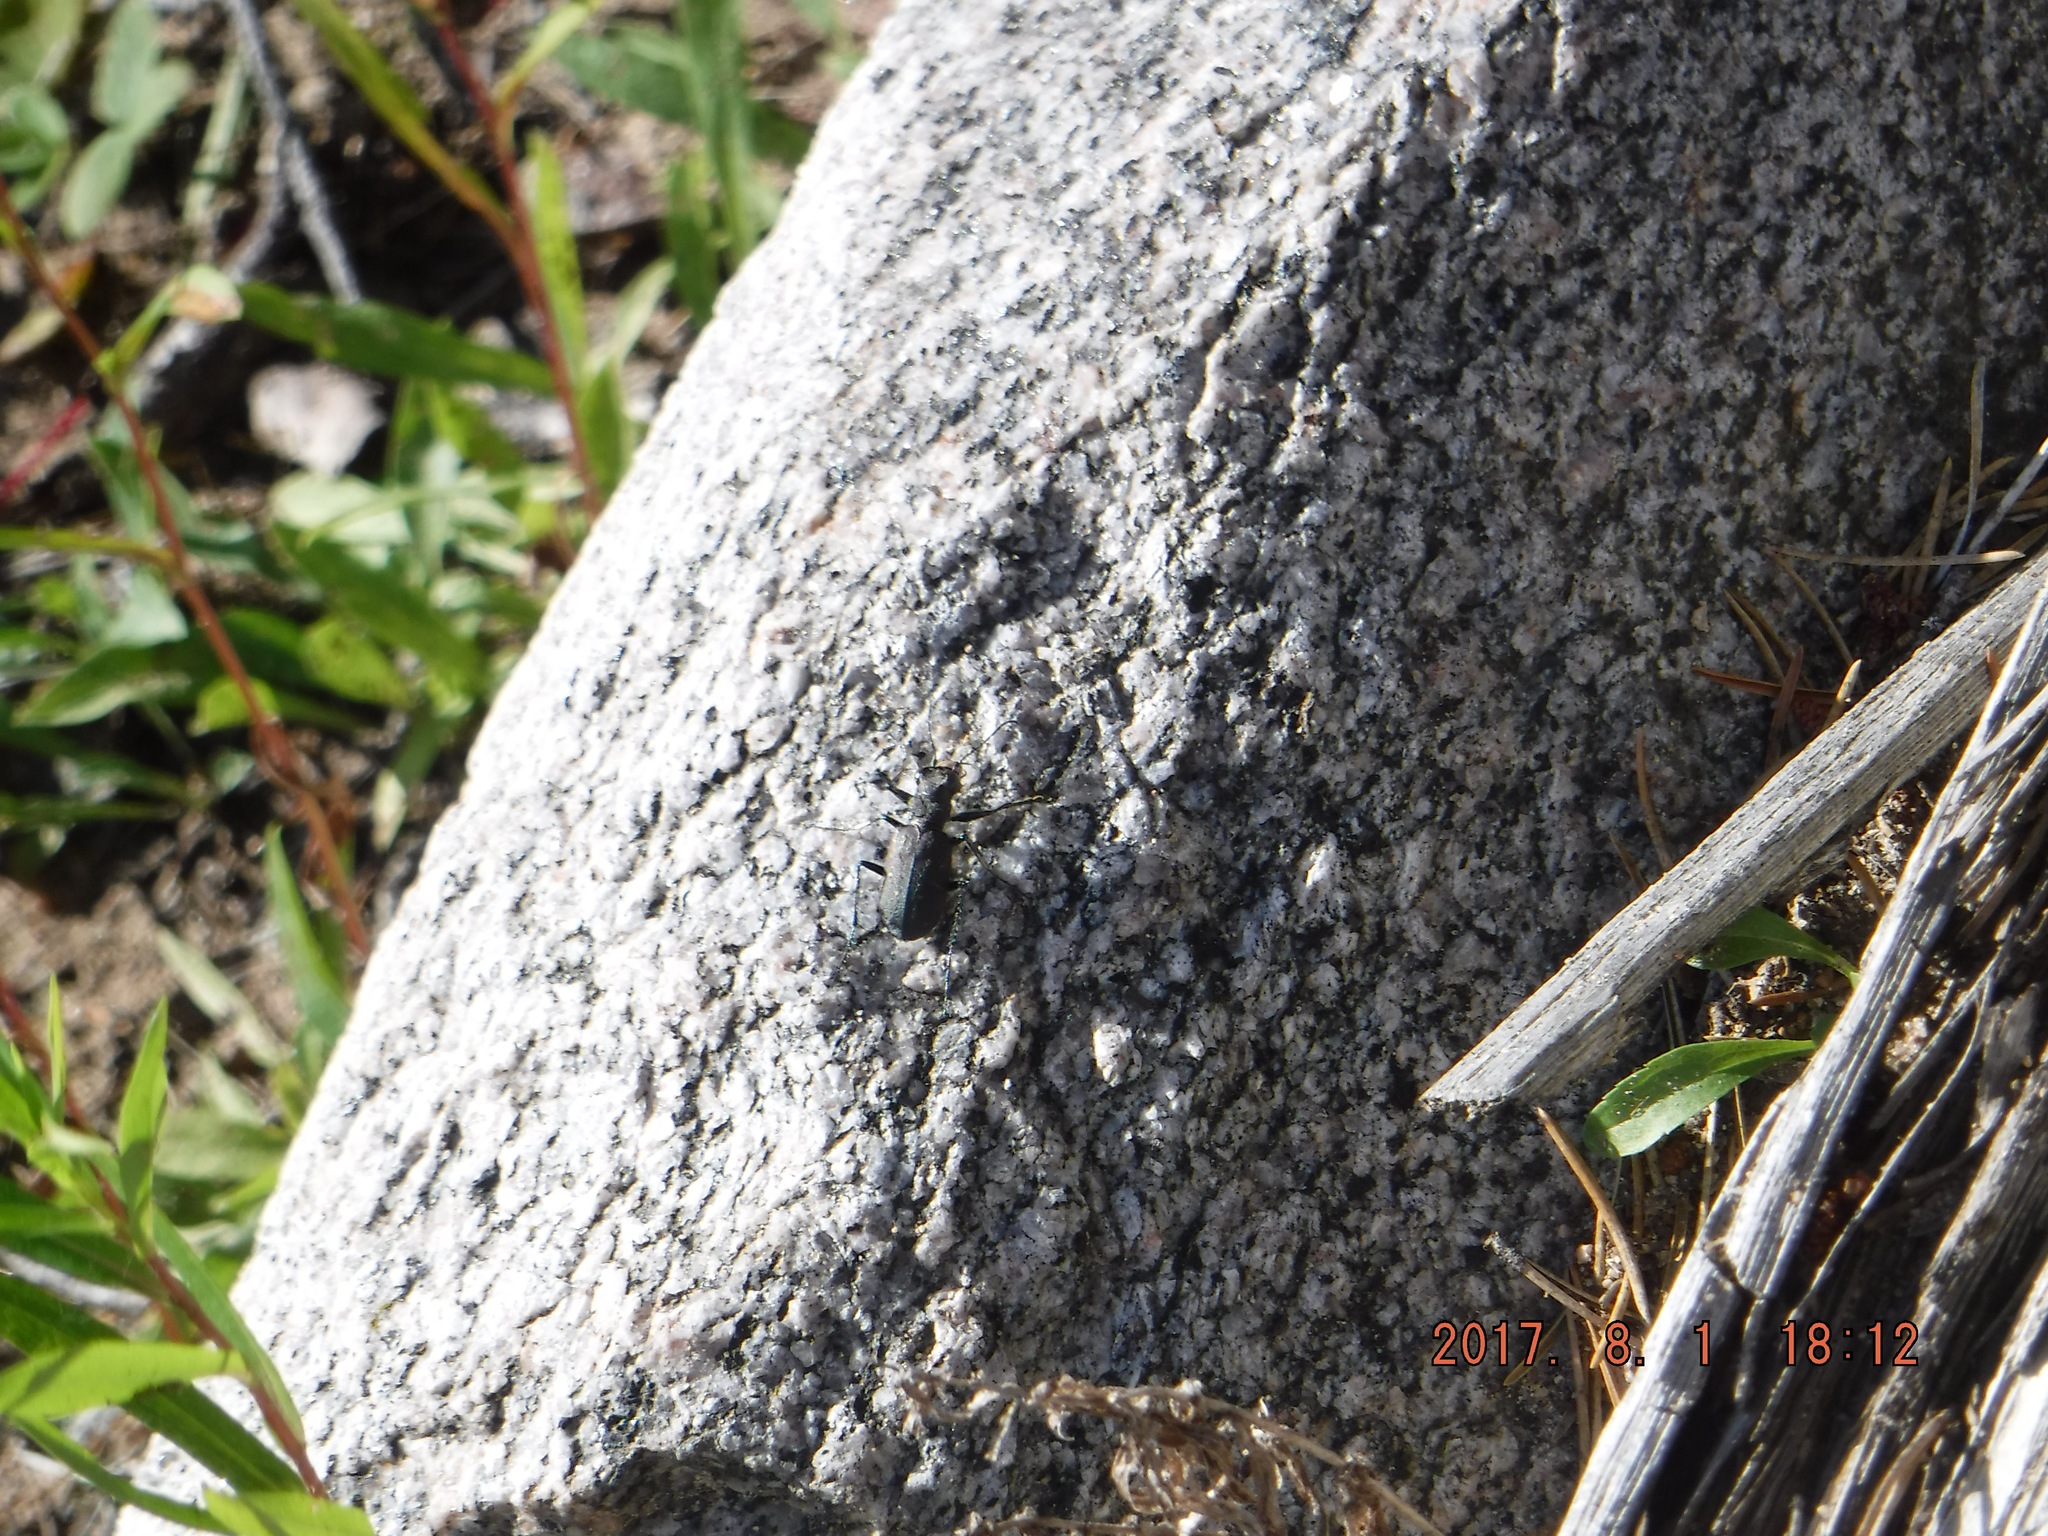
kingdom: Animalia
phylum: Arthropoda
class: Insecta
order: Coleoptera
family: Carabidae
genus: Cicindela
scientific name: Cicindela longilabris
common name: Boreal long-lipped tiger beetle
